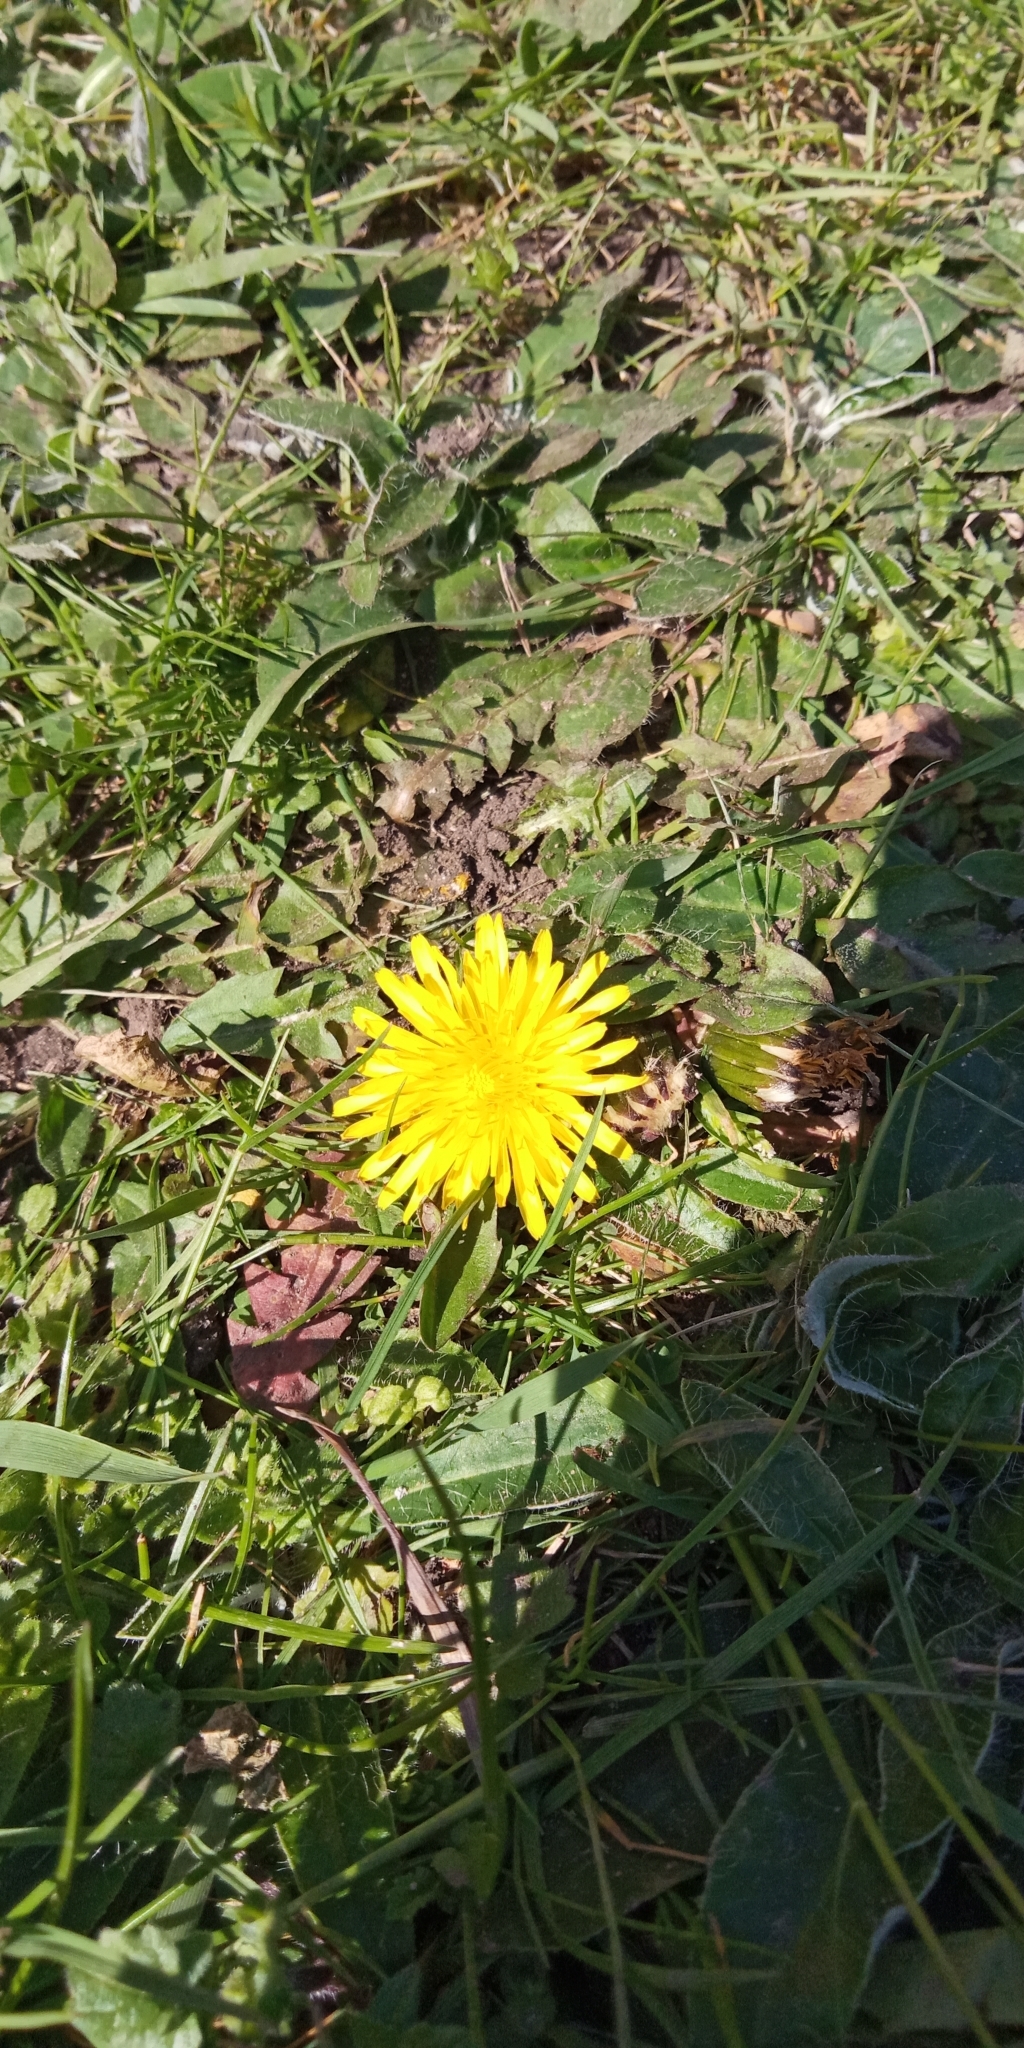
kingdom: Plantae
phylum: Tracheophyta
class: Magnoliopsida
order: Asterales
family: Asteraceae
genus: Taraxacum
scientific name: Taraxacum officinale
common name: Common dandelion
